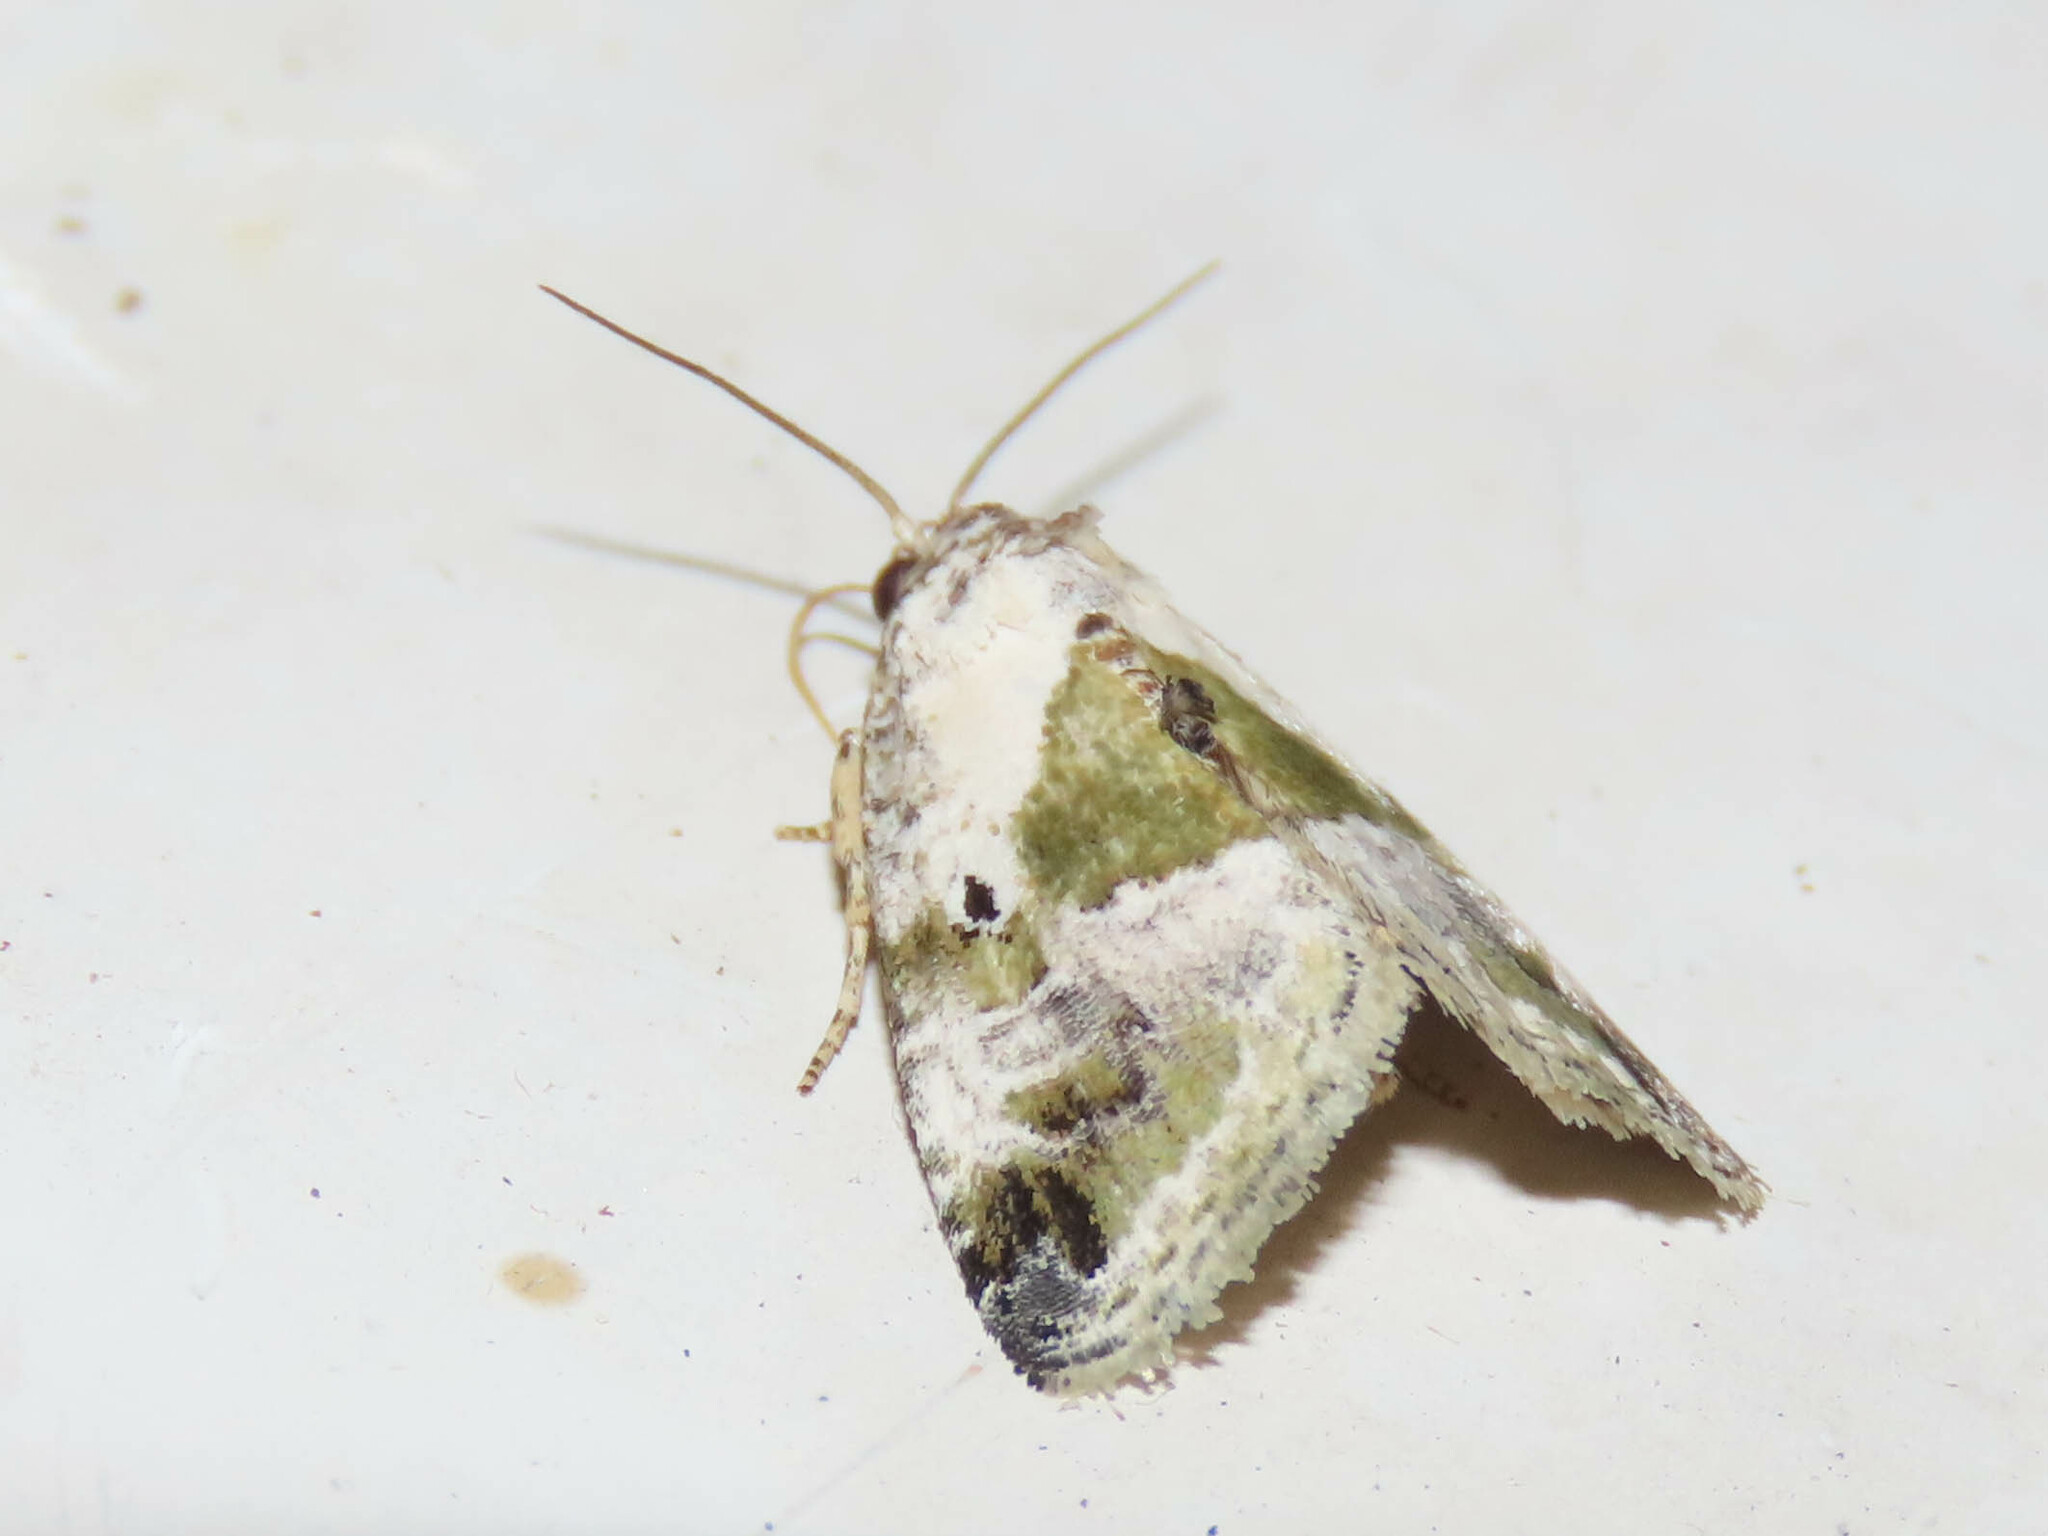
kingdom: Animalia
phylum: Arthropoda
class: Insecta
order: Lepidoptera
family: Noctuidae
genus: Maliattha
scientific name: Maliattha synochitis
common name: Black-dotted glyph
